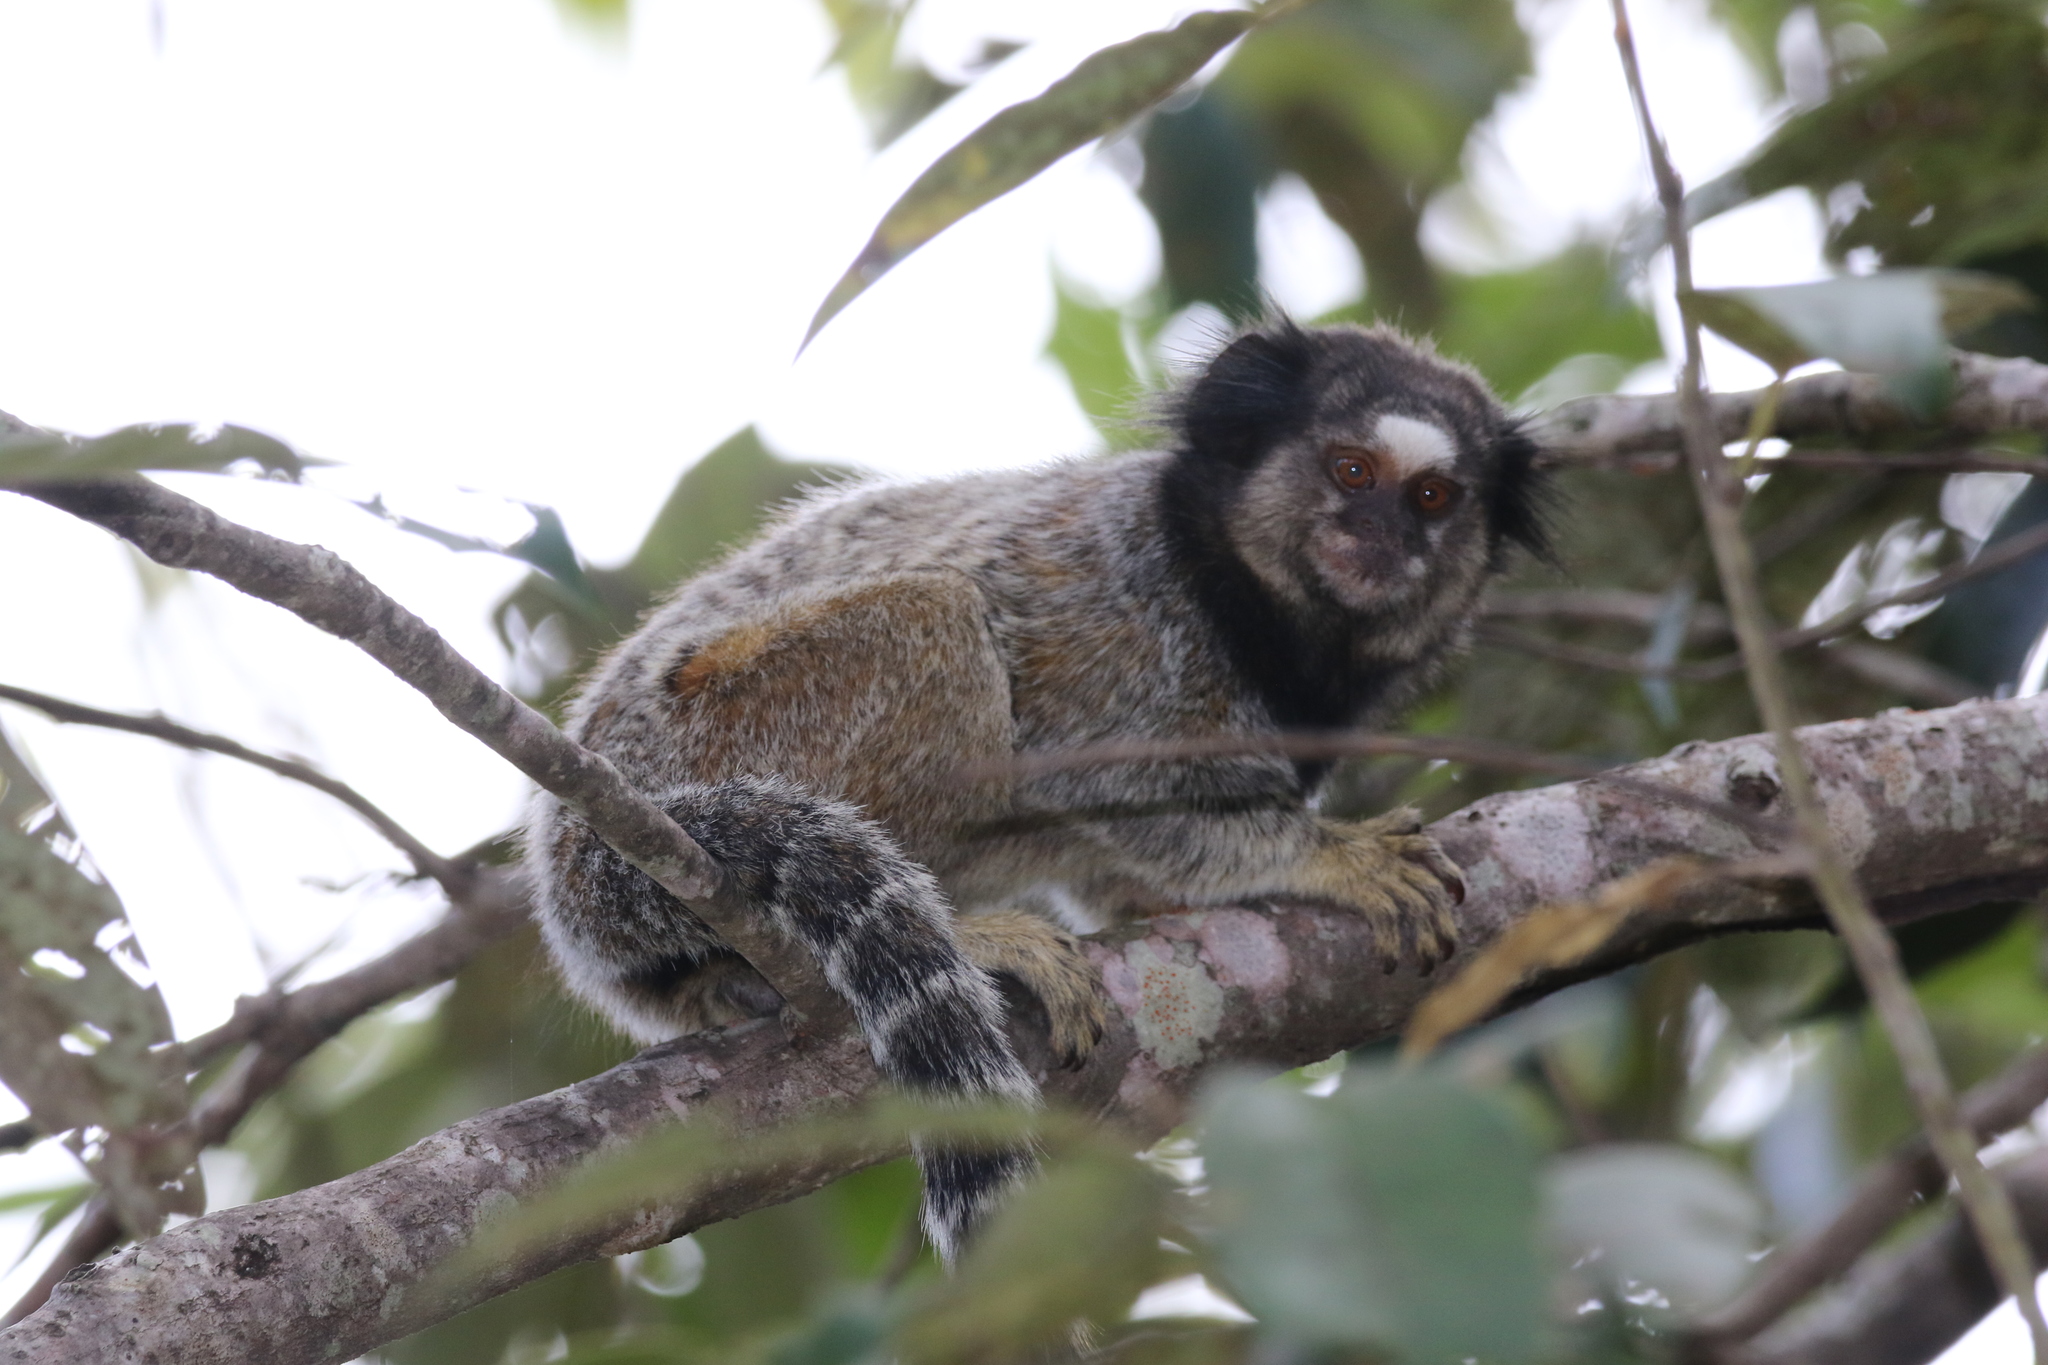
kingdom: Animalia
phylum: Chordata
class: Mammalia
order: Primates
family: Callitrichidae
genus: Callithrix
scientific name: Callithrix penicillata
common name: Black-tufted marmoset
